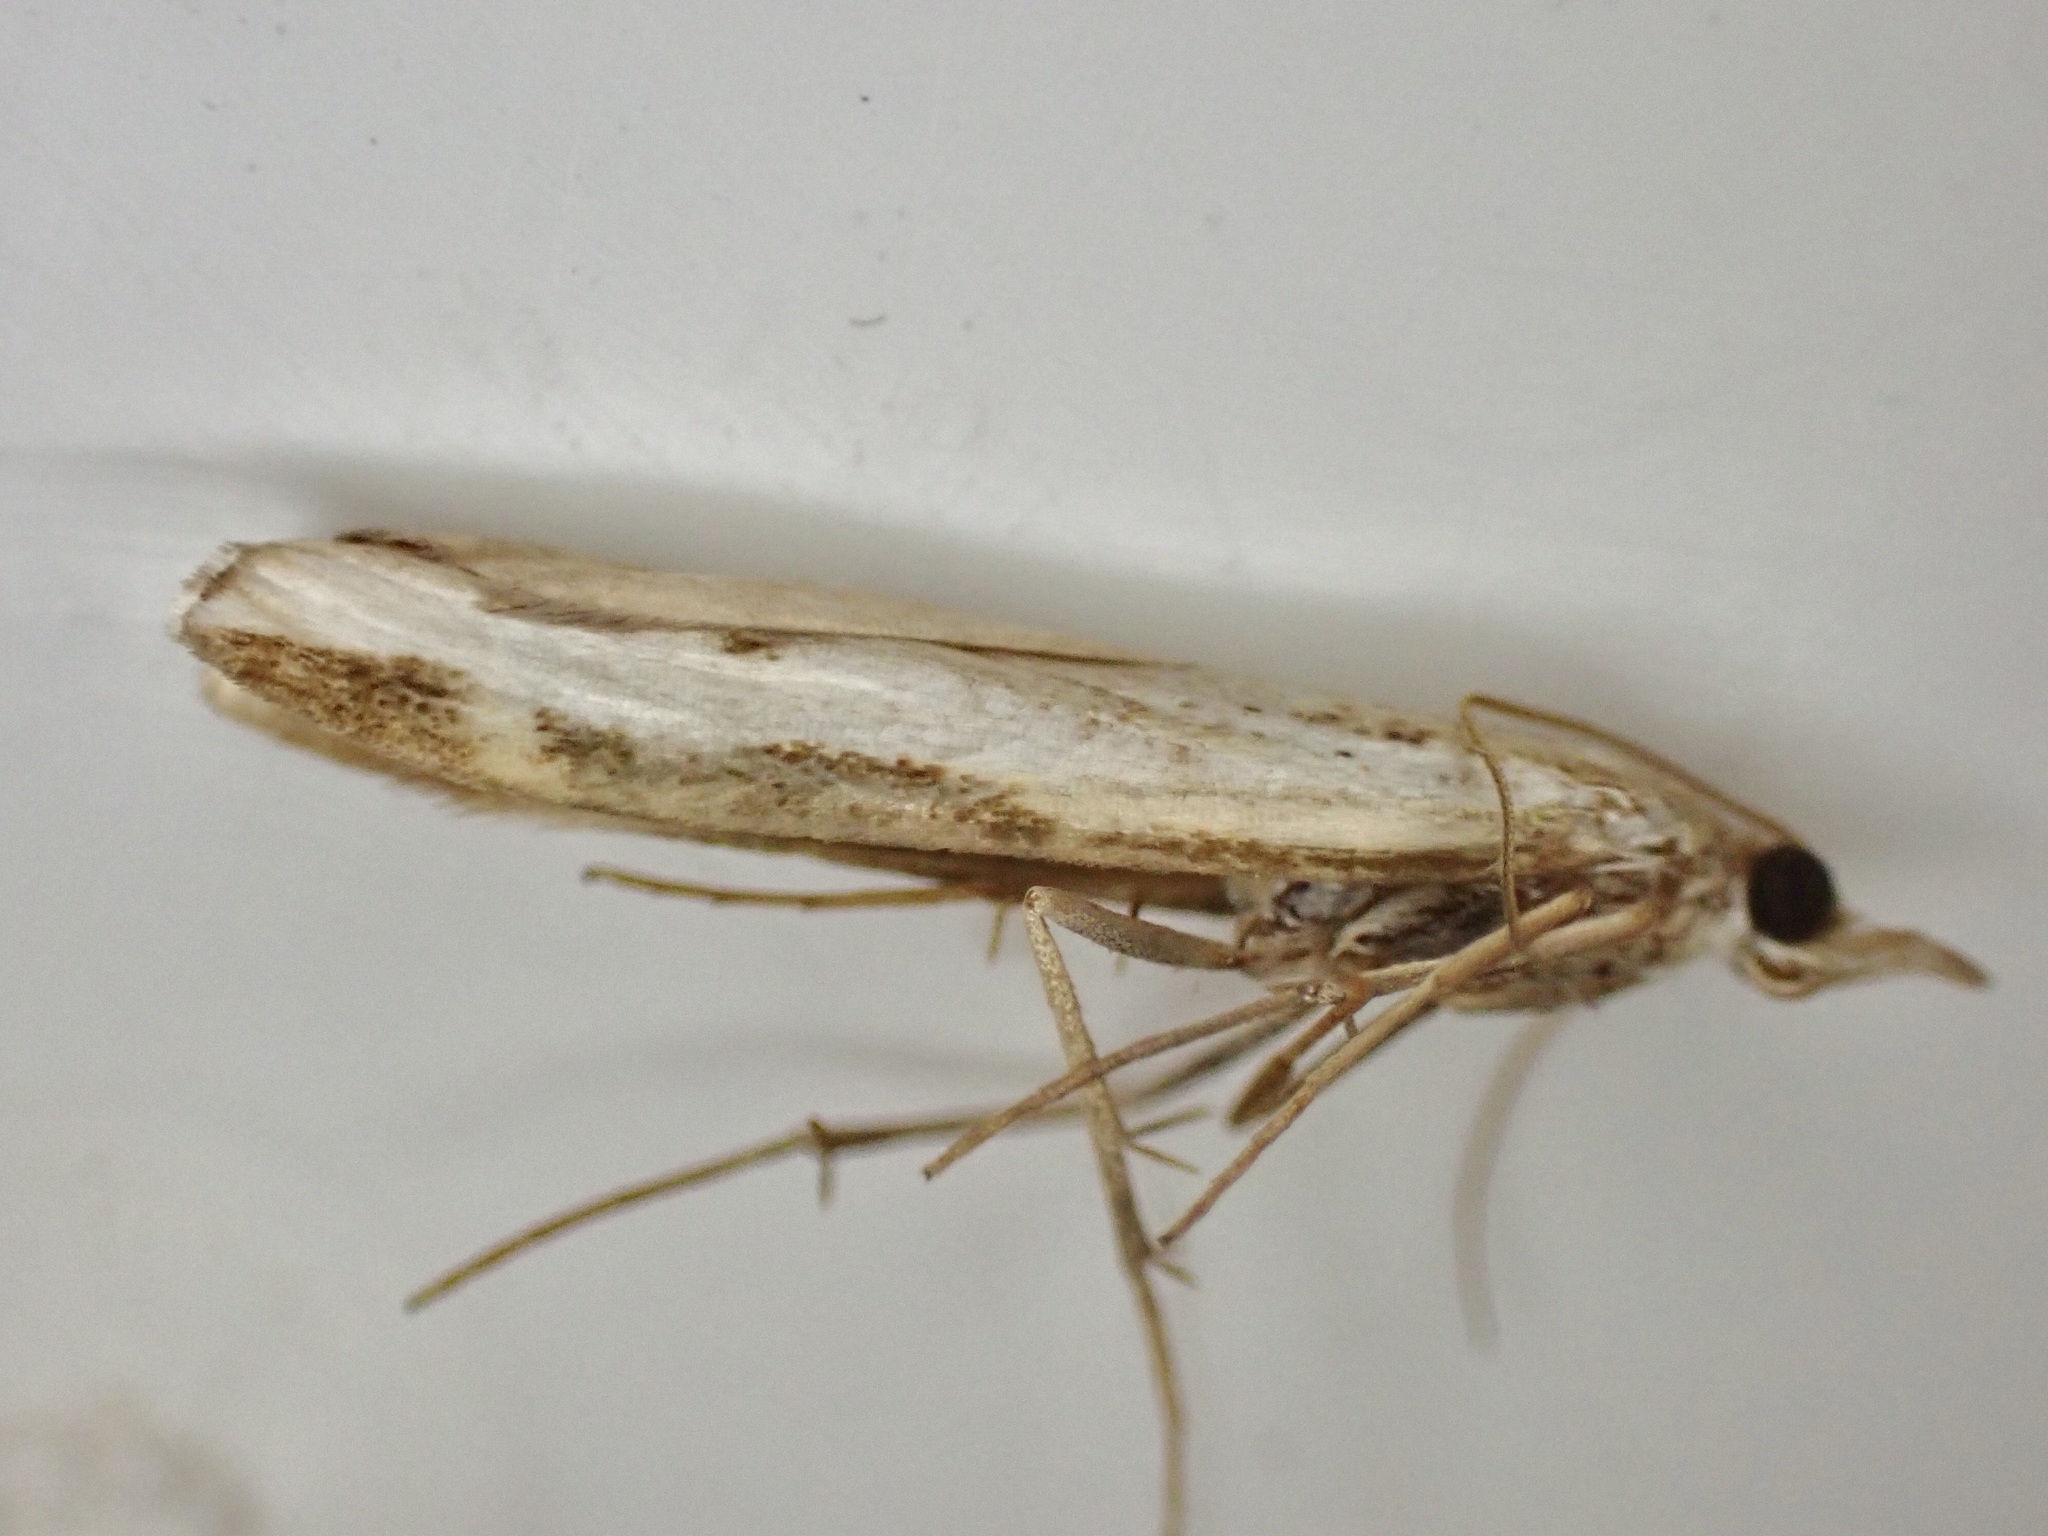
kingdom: Animalia
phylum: Arthropoda
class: Insecta
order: Lepidoptera
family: Crambidae
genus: Orocrambus
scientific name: Orocrambus flexuosellus
